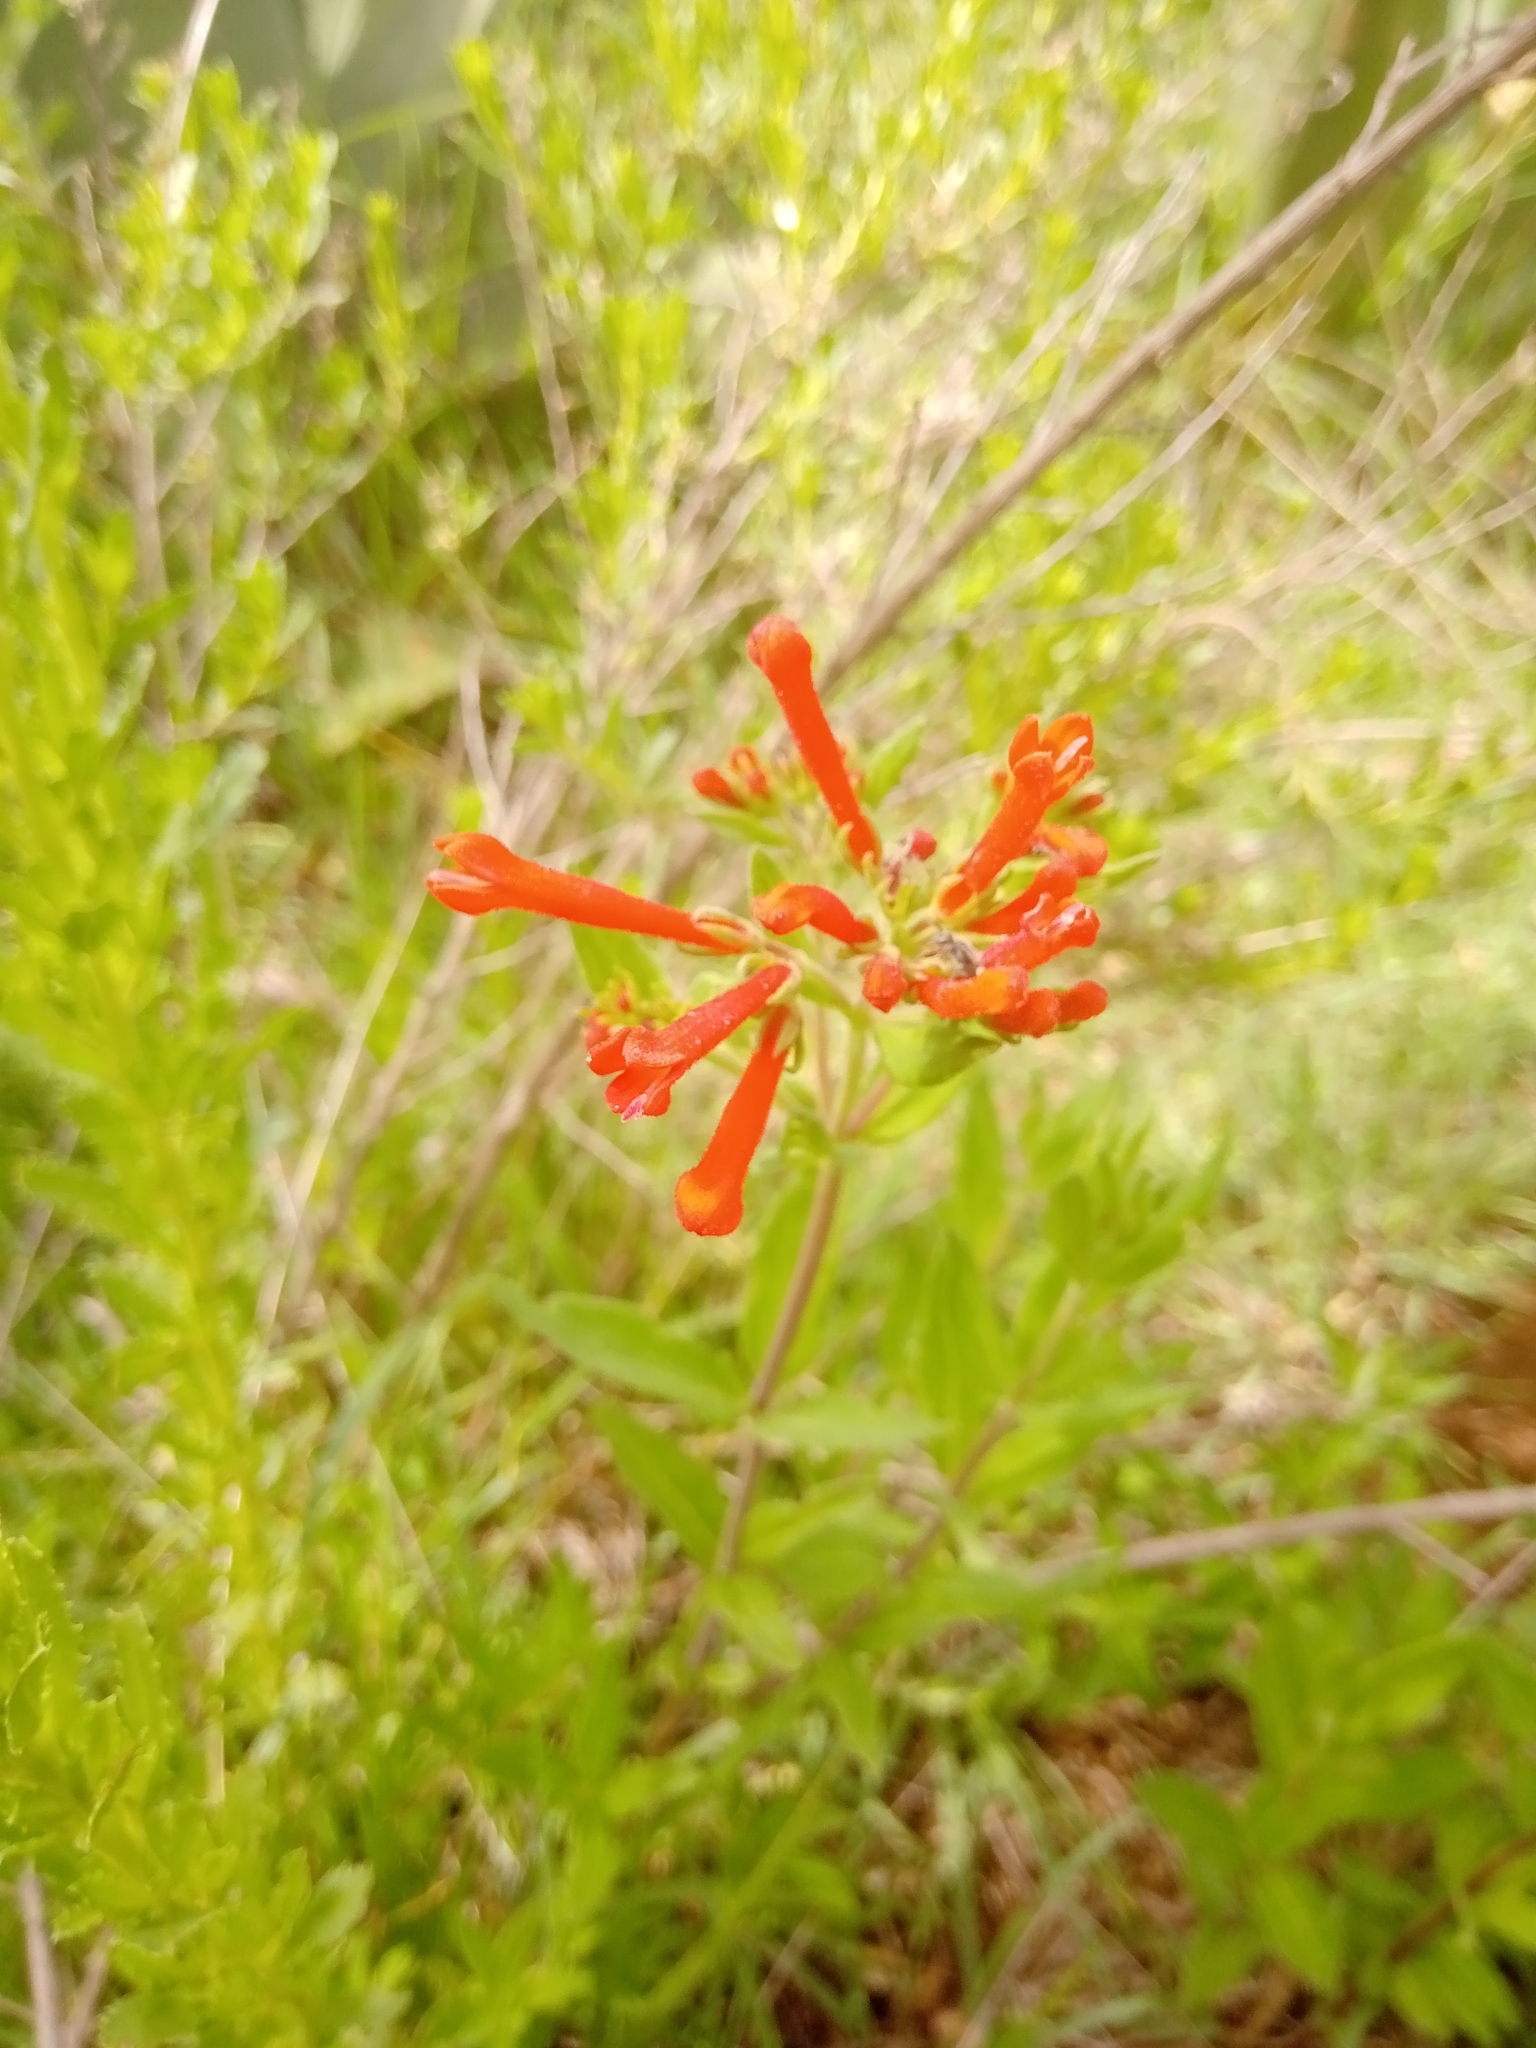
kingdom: Plantae
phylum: Tracheophyta
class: Magnoliopsida
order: Gentianales
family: Rubiaceae
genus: Bouvardia
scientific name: Bouvardia ternifolia
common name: Scarlet bouvardia
